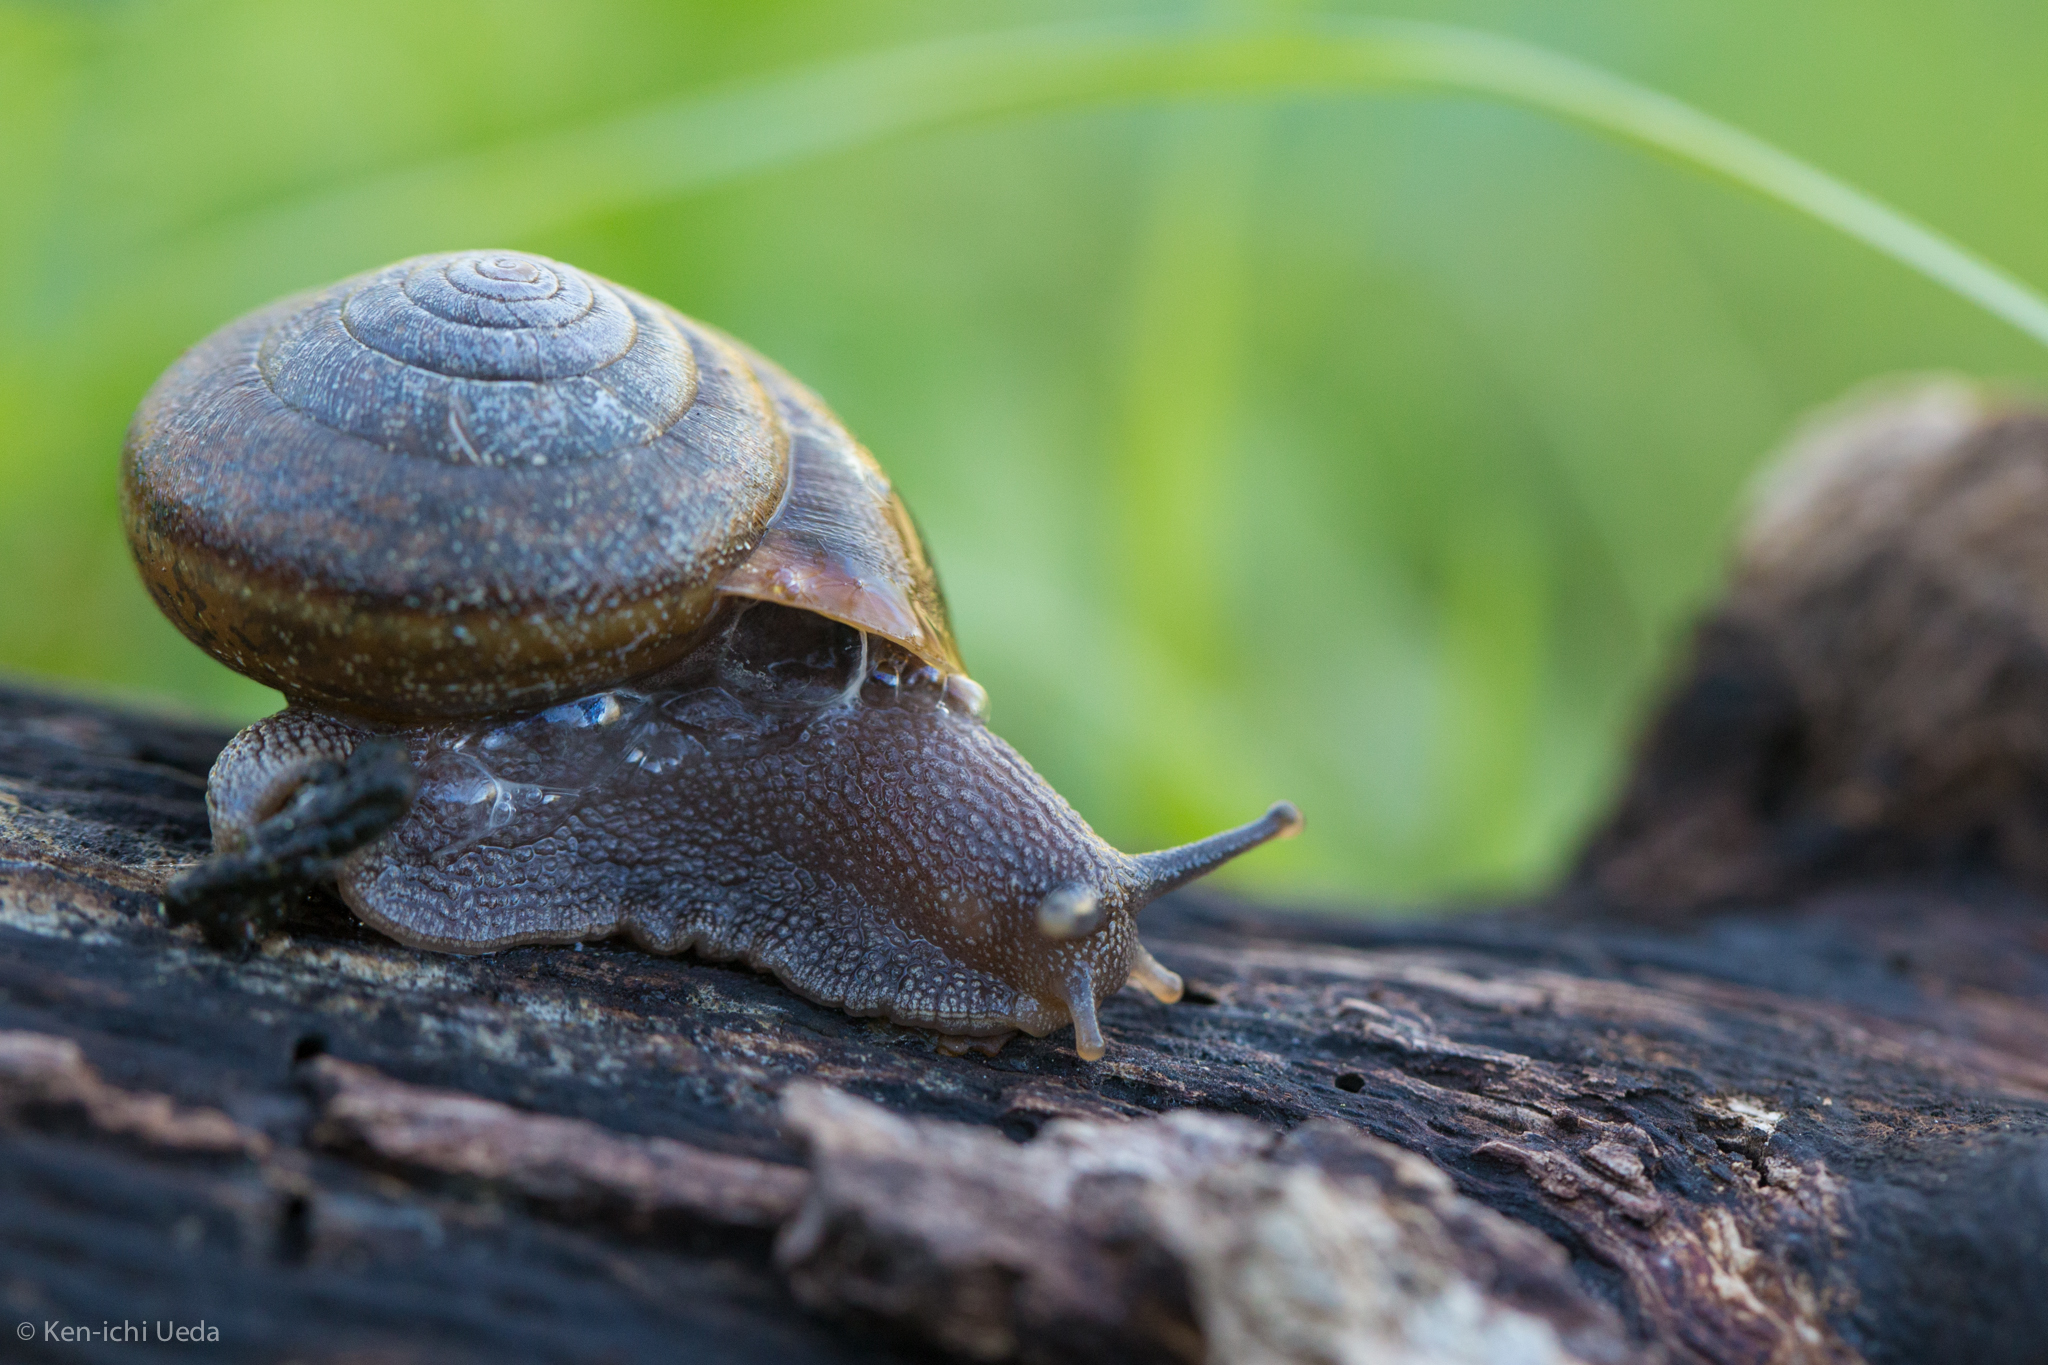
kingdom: Animalia
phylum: Mollusca
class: Gastropoda
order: Stylommatophora
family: Xanthonychidae
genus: Helminthoglypta
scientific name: Helminthoglypta diabloensis
